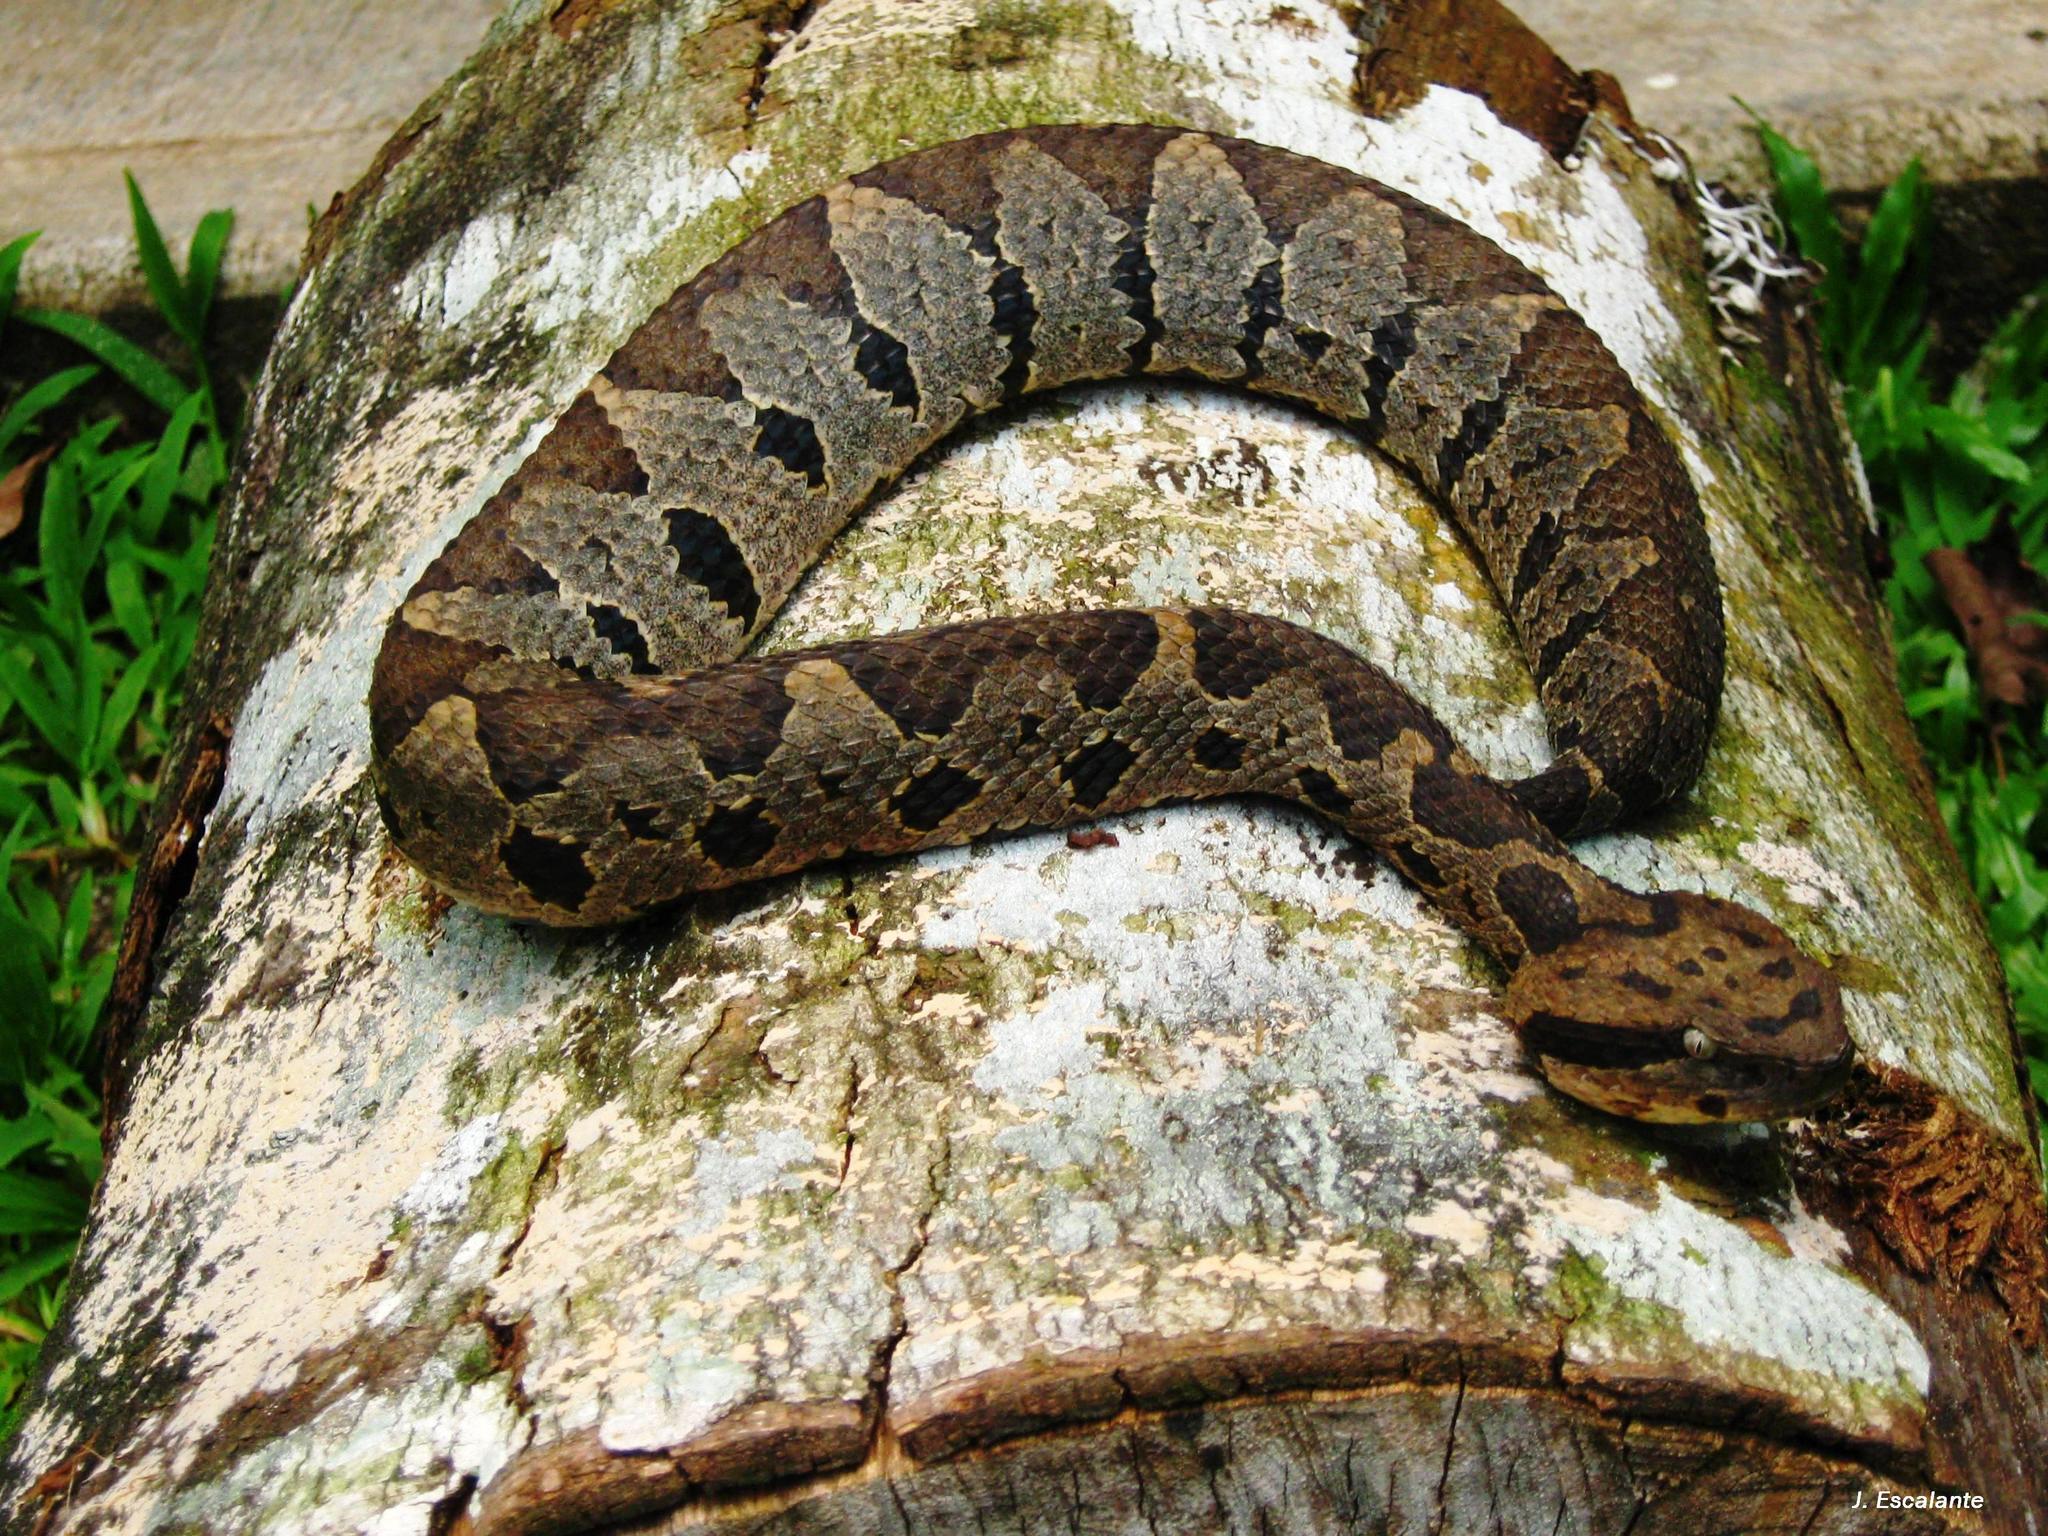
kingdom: Animalia
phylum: Chordata
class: Squamata
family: Viperidae
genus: Metlapilcoatlus
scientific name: Metlapilcoatlus olmec
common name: Olmecan pit viper
